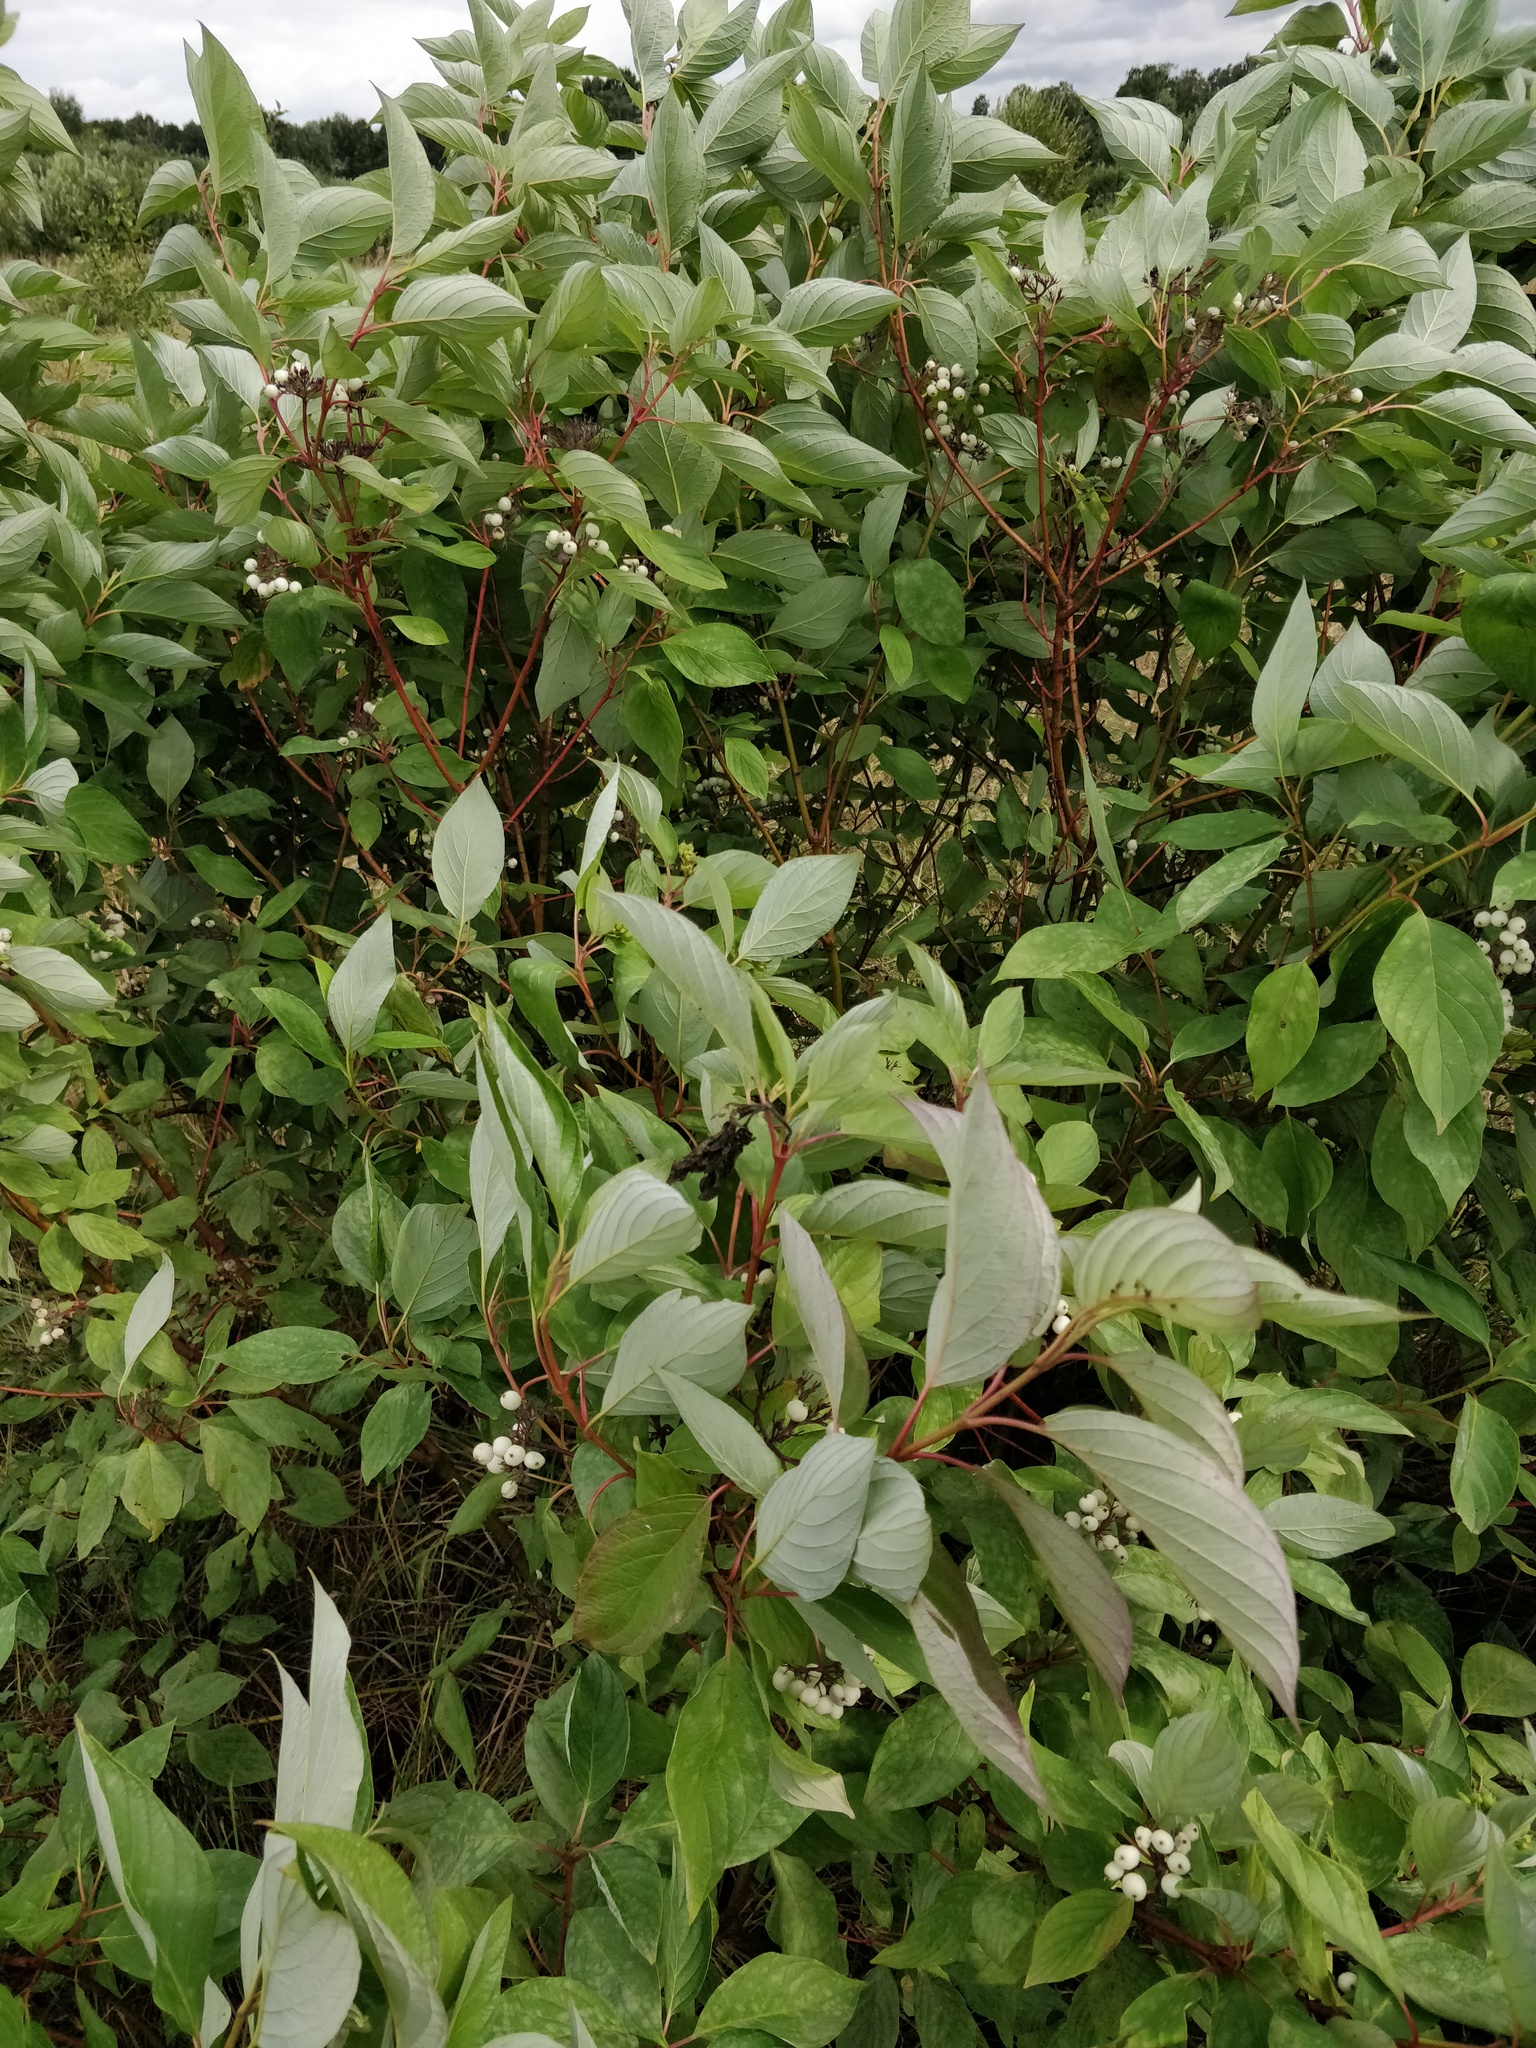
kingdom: Plantae
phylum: Tracheophyta
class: Magnoliopsida
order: Cornales
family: Cornaceae
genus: Cornus
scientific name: Cornus alba
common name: White dogwood
